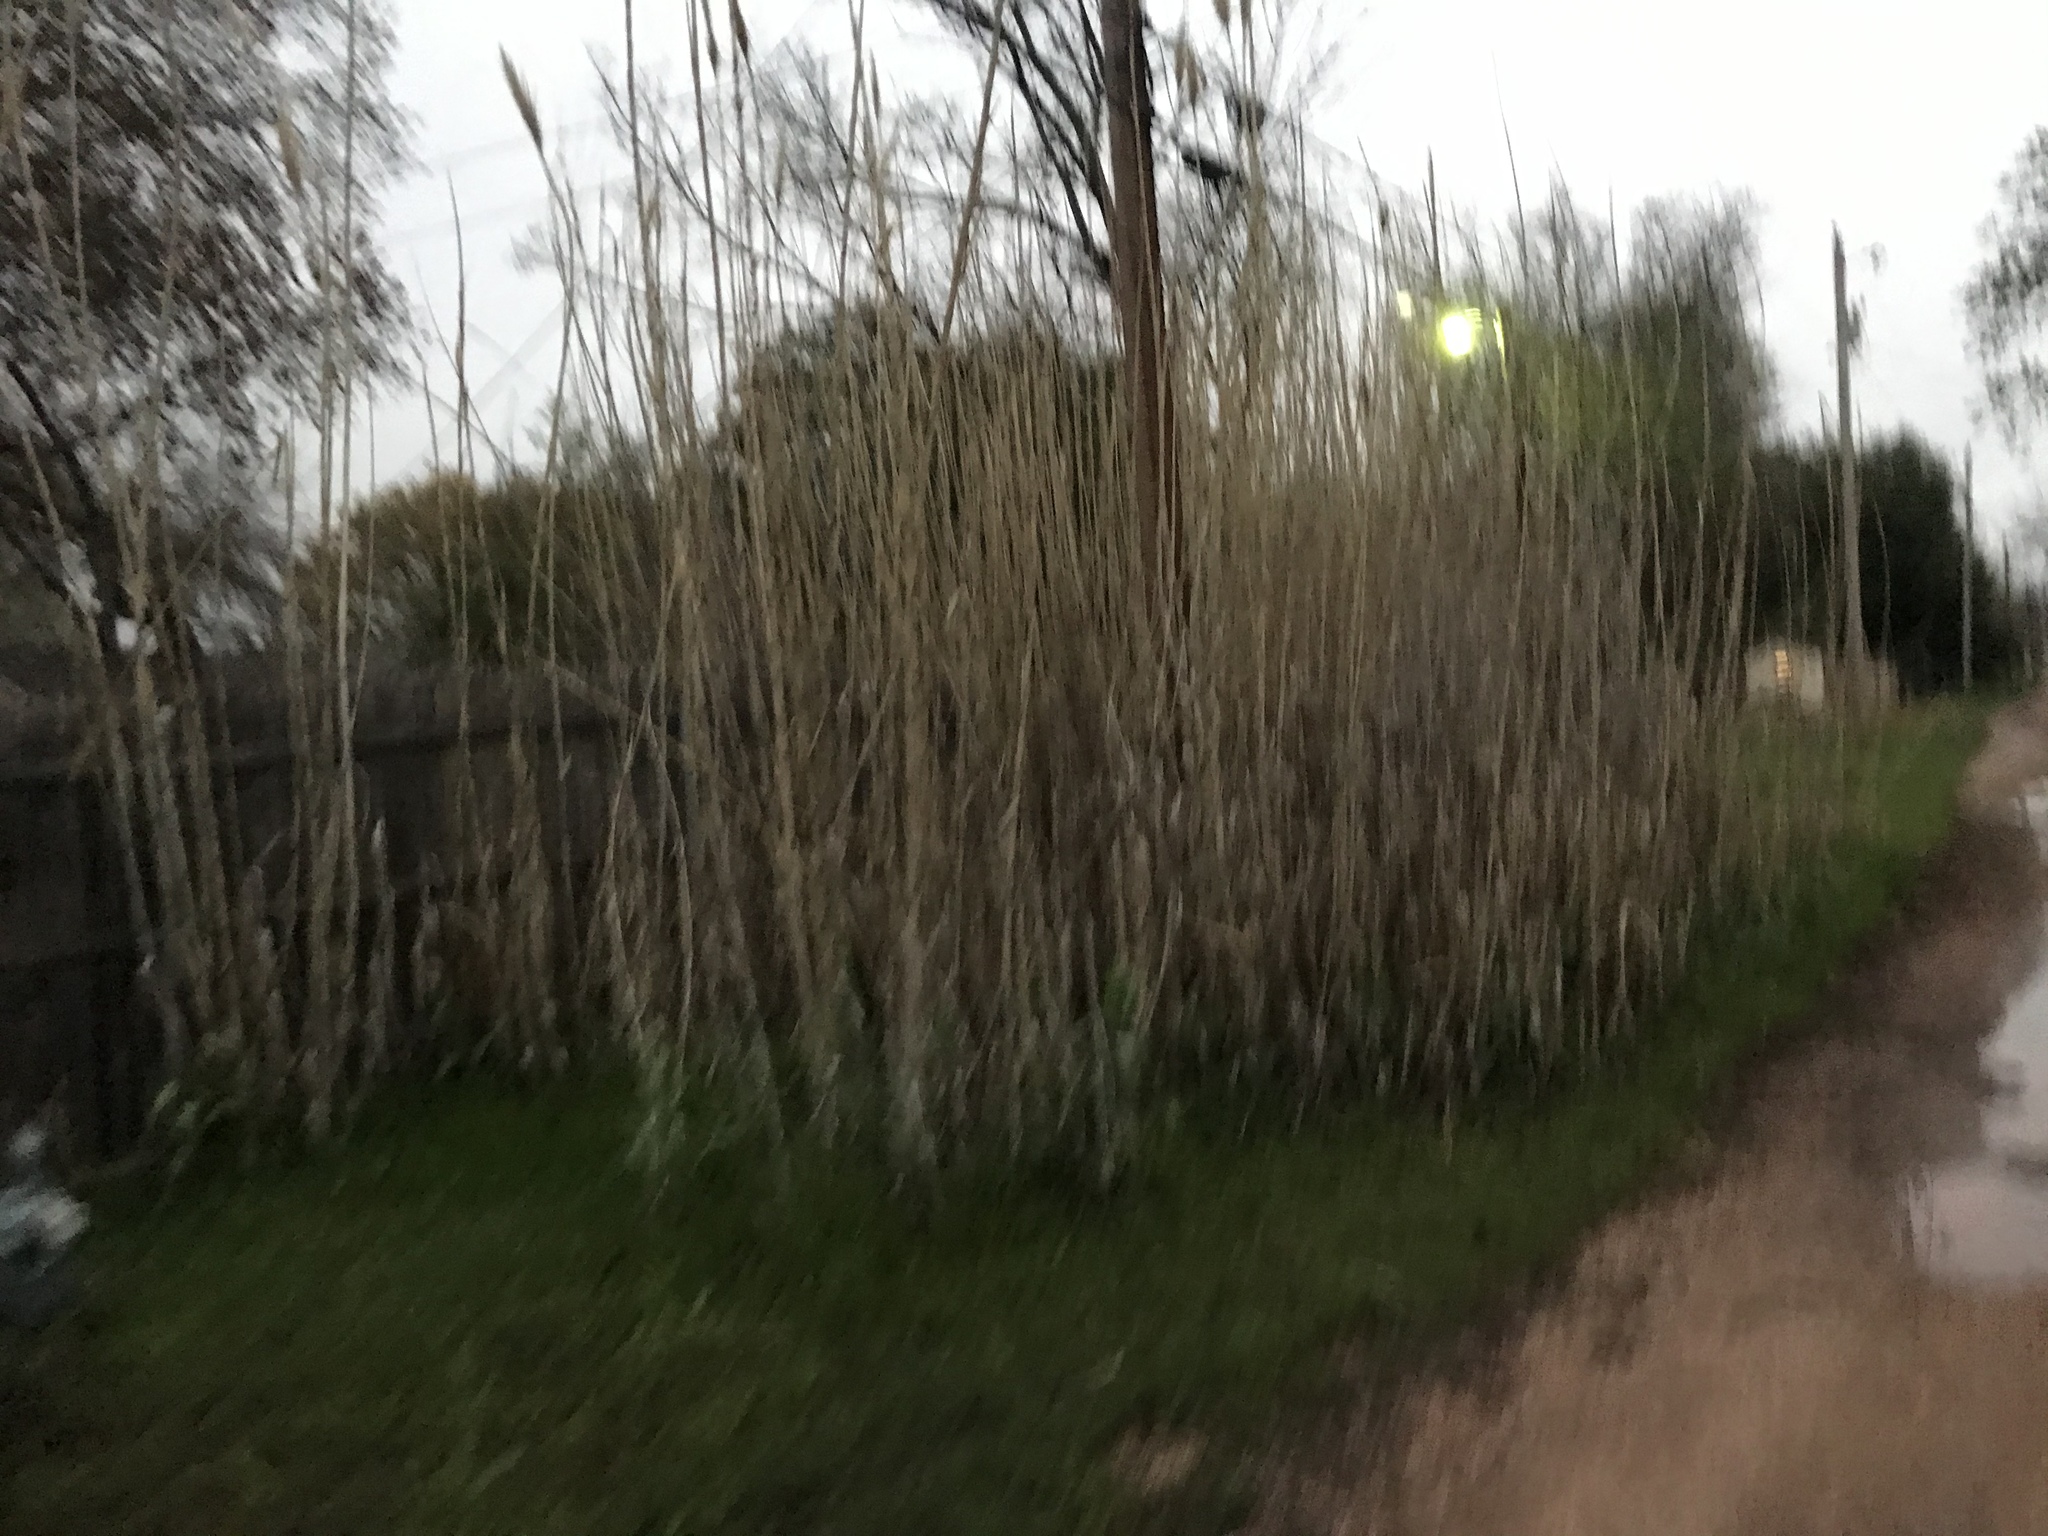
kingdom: Plantae
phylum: Tracheophyta
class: Liliopsida
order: Poales
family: Poaceae
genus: Arundo
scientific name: Arundo donax
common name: Giant reed
